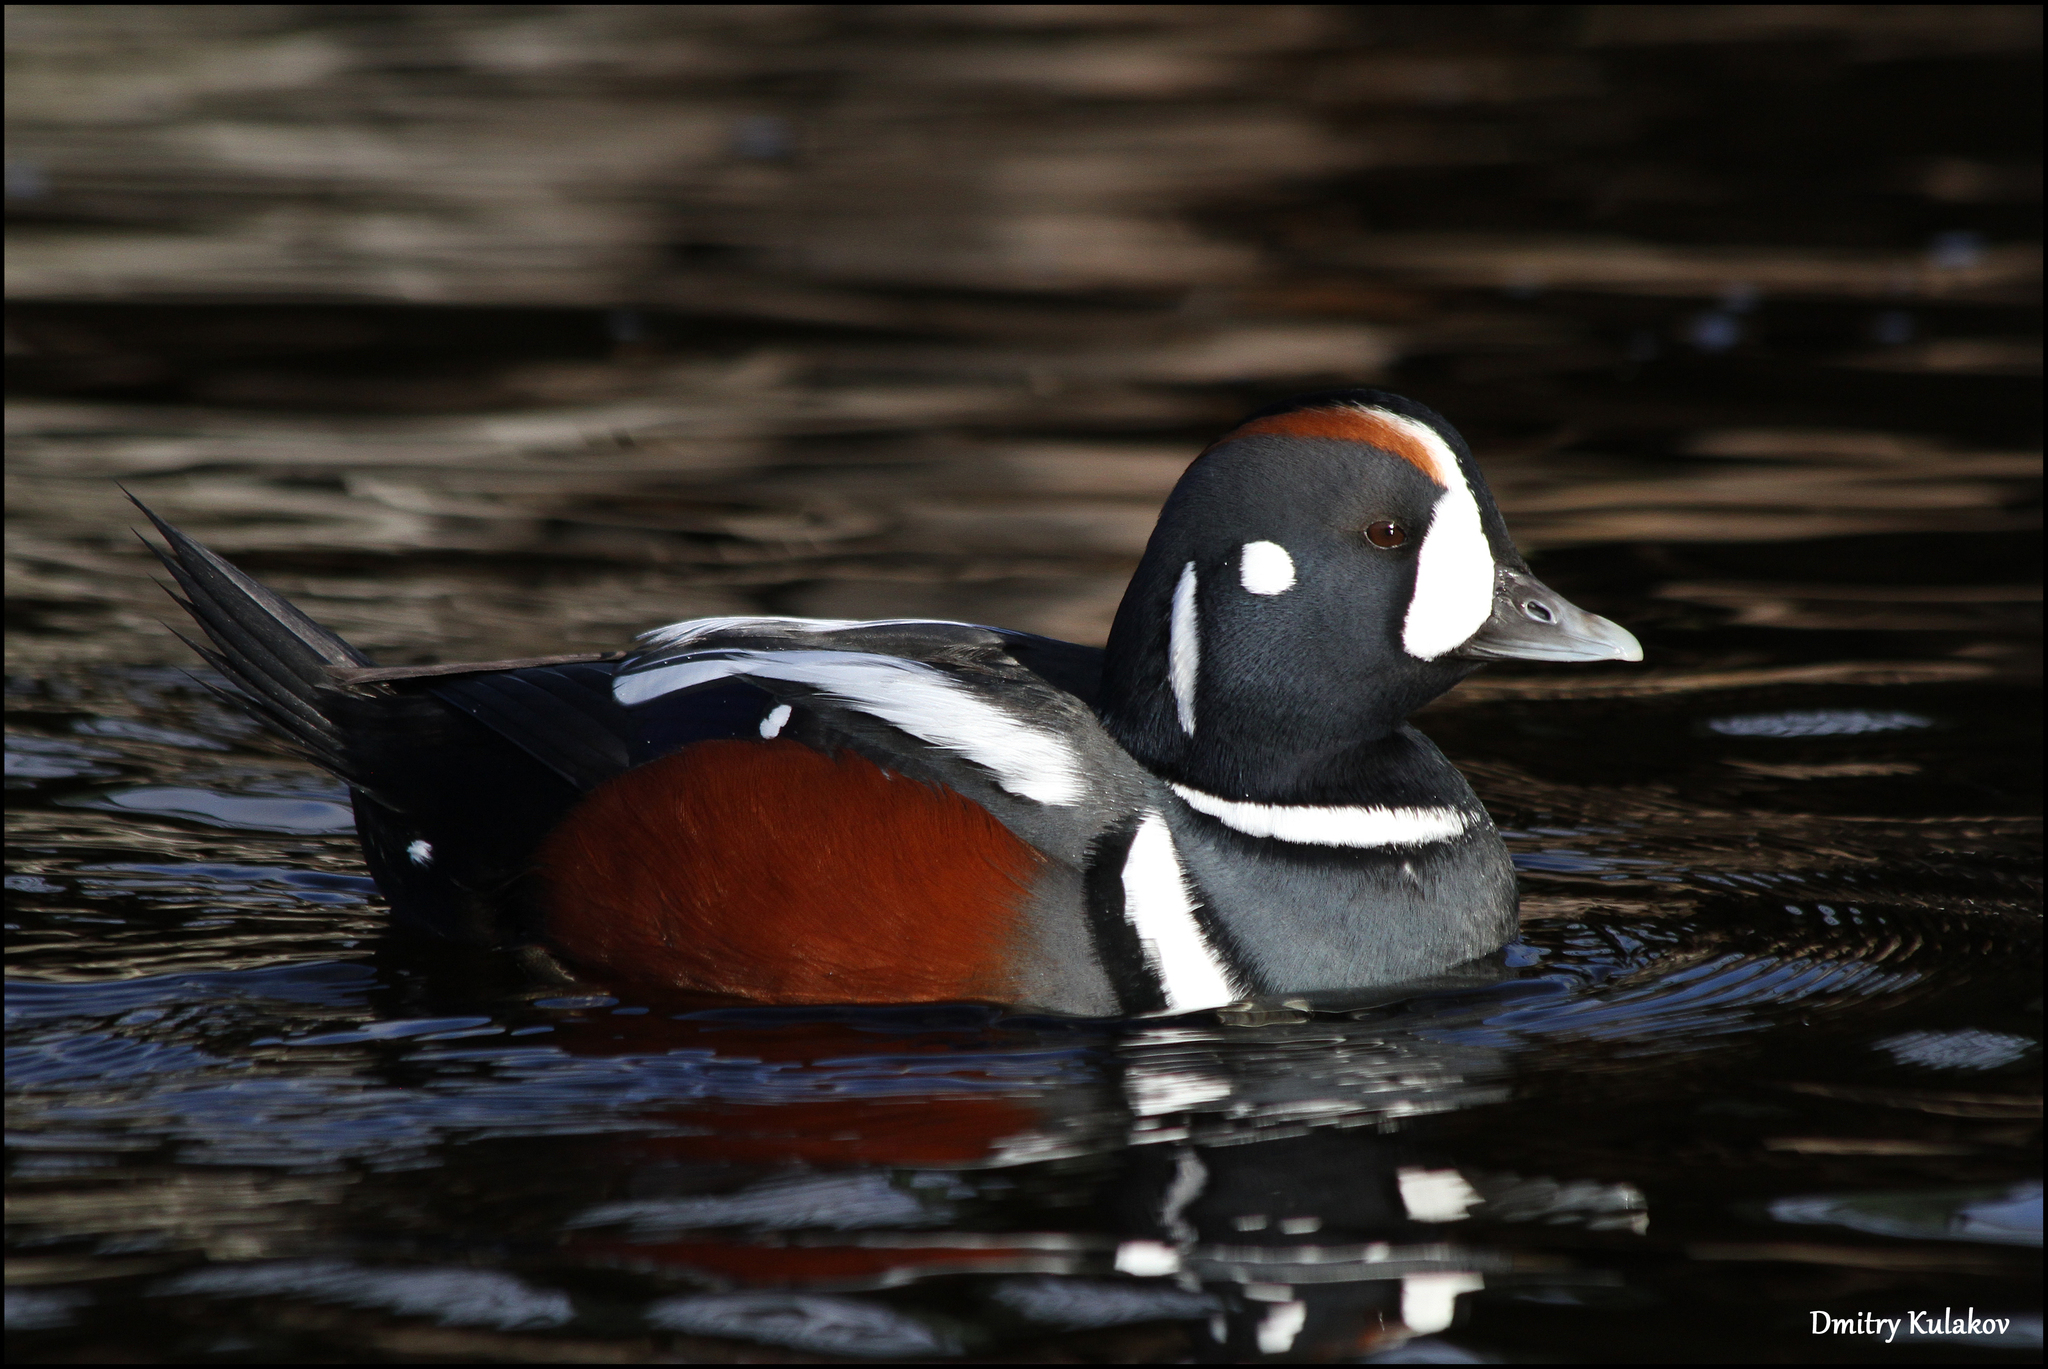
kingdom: Animalia
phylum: Chordata
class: Aves
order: Anseriformes
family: Anatidae
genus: Histrionicus
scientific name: Histrionicus histrionicus
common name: Harlequin duck
